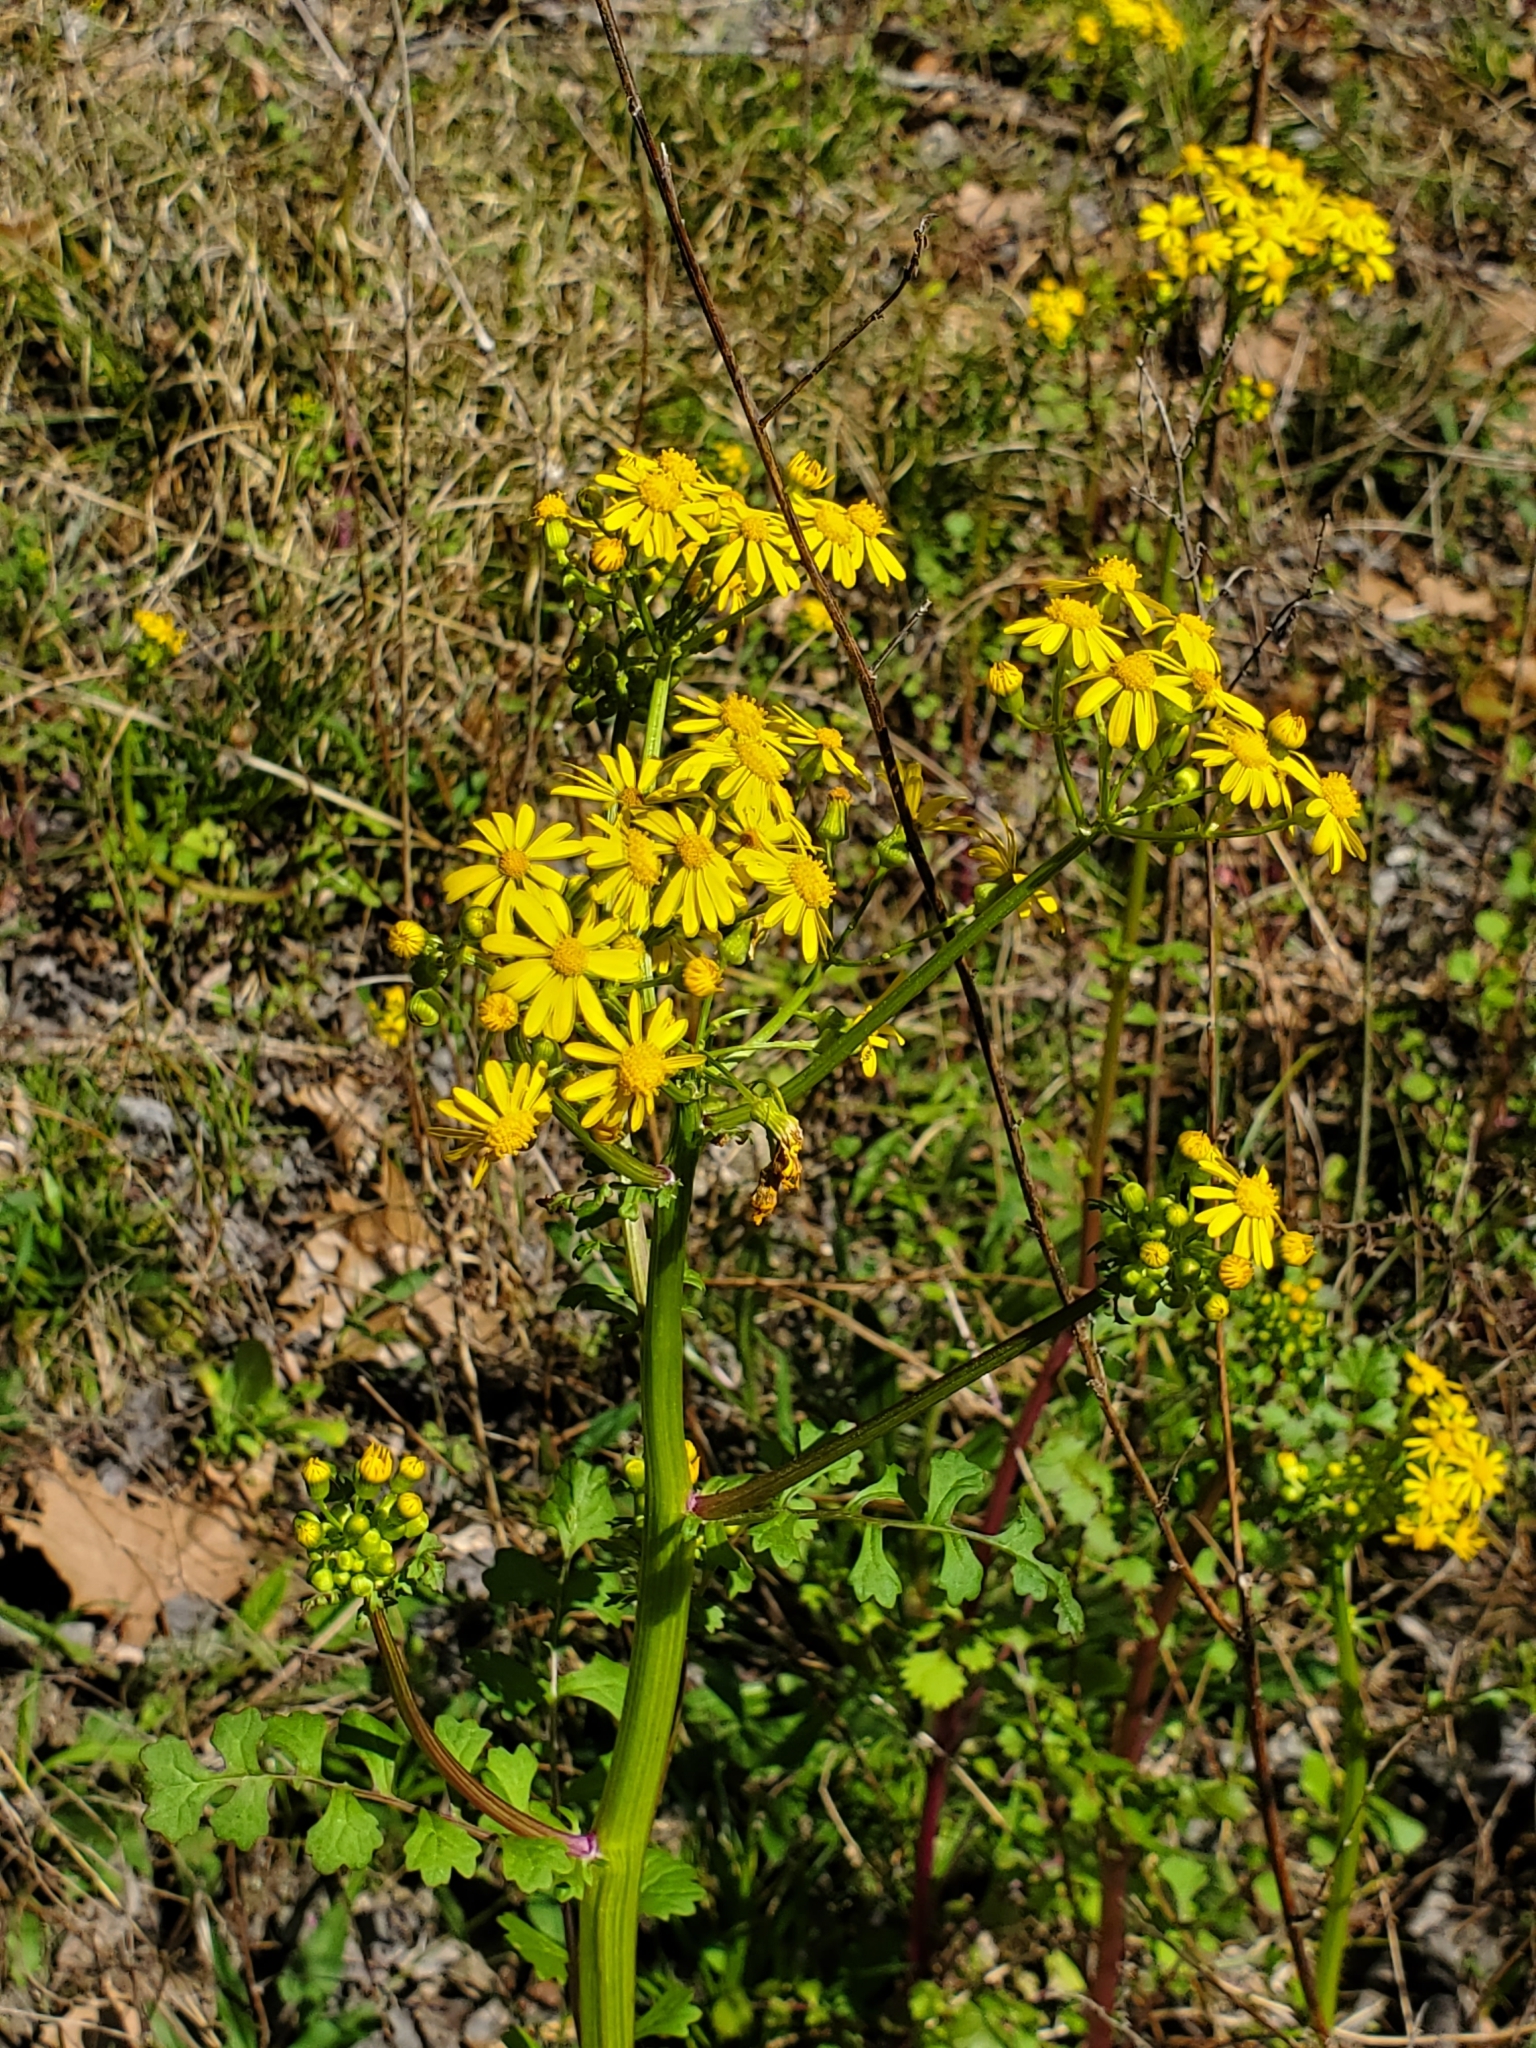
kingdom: Plantae
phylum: Tracheophyta
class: Magnoliopsida
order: Asterales
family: Asteraceae
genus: Packera
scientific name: Packera glabella
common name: Butterweed
